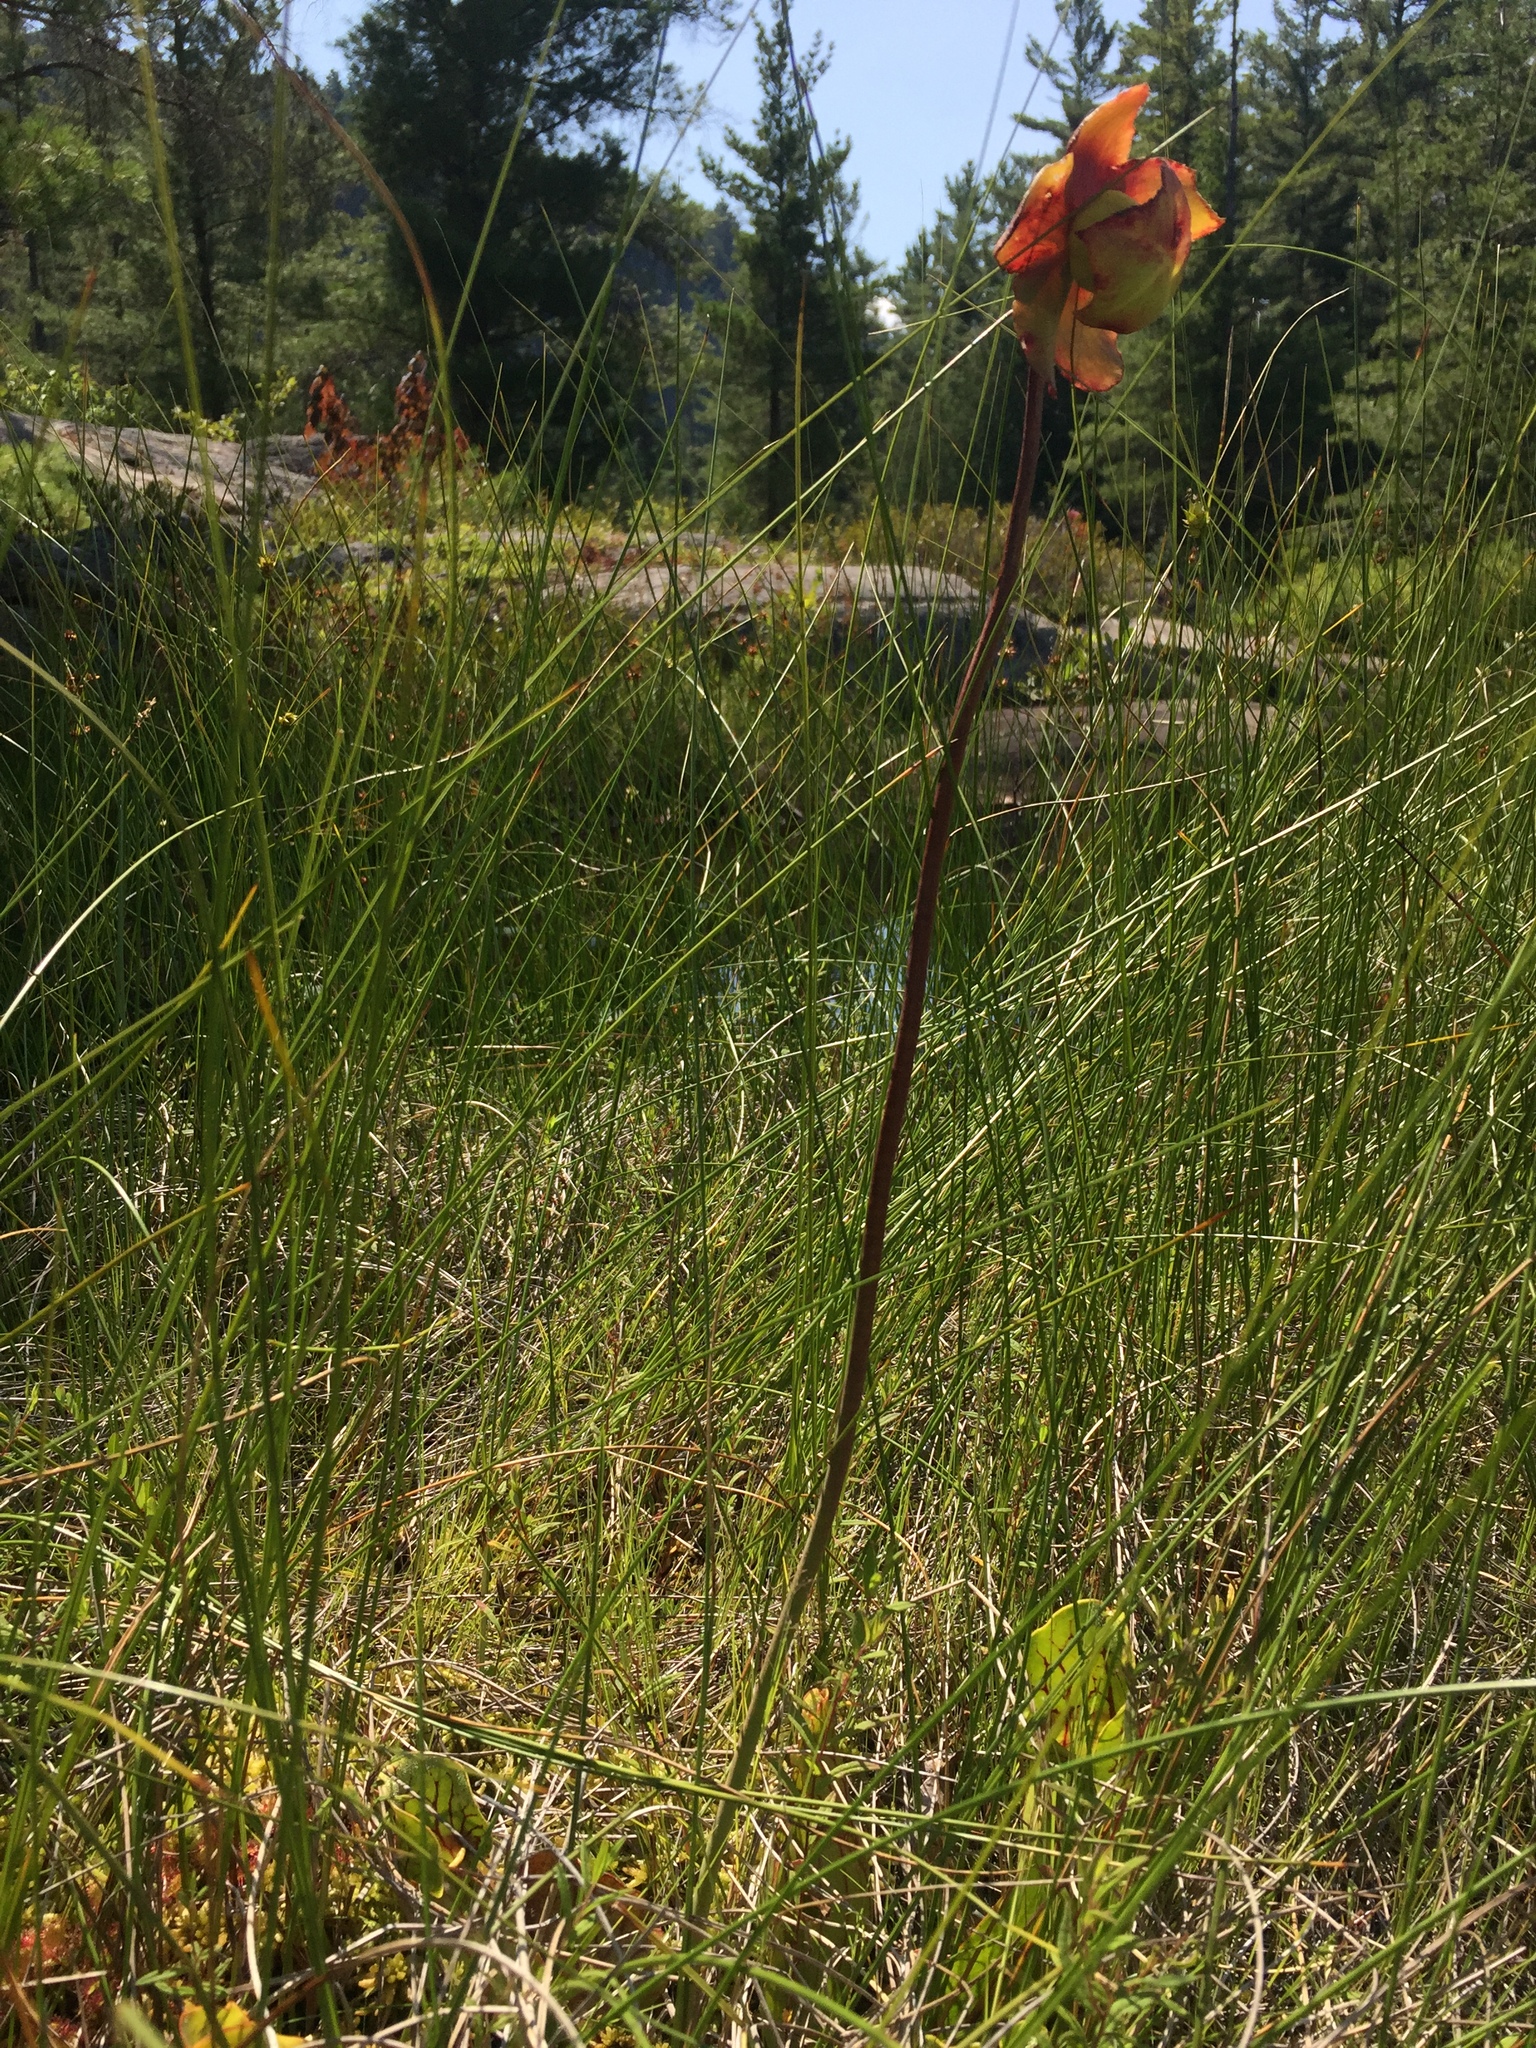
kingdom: Plantae
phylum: Tracheophyta
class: Magnoliopsida
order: Ericales
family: Sarraceniaceae
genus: Sarracenia
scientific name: Sarracenia purpurea
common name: Pitcherplant
